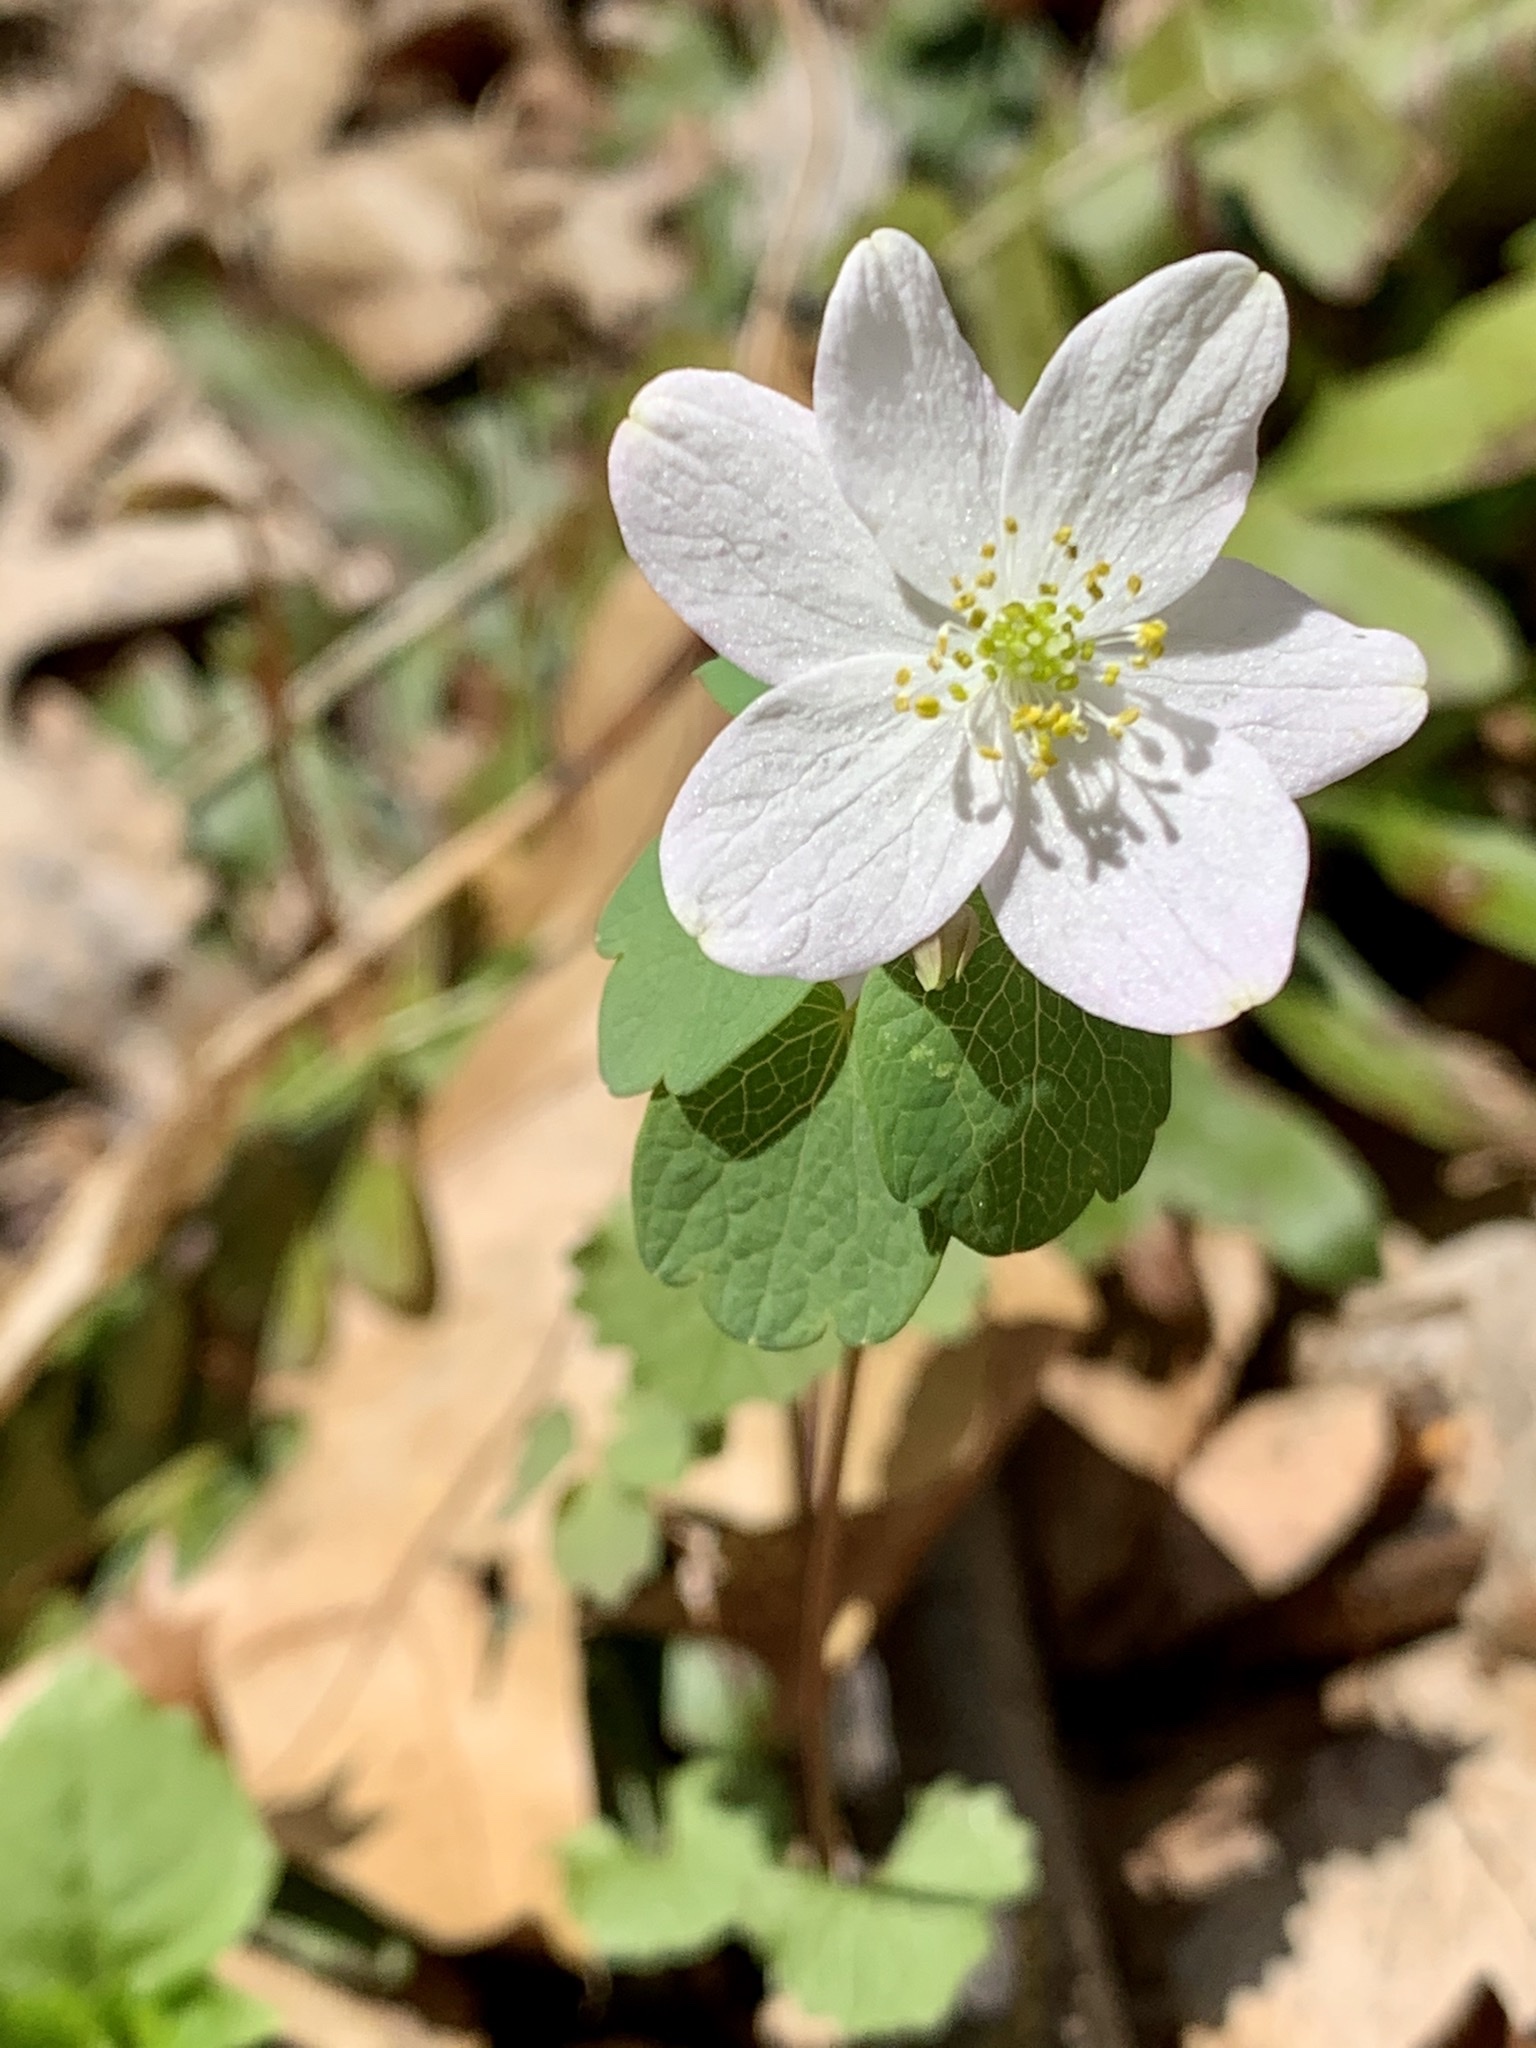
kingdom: Plantae
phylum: Tracheophyta
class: Magnoliopsida
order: Ranunculales
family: Ranunculaceae
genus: Thalictrum
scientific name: Thalictrum thalictroides
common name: Rue-anemone
